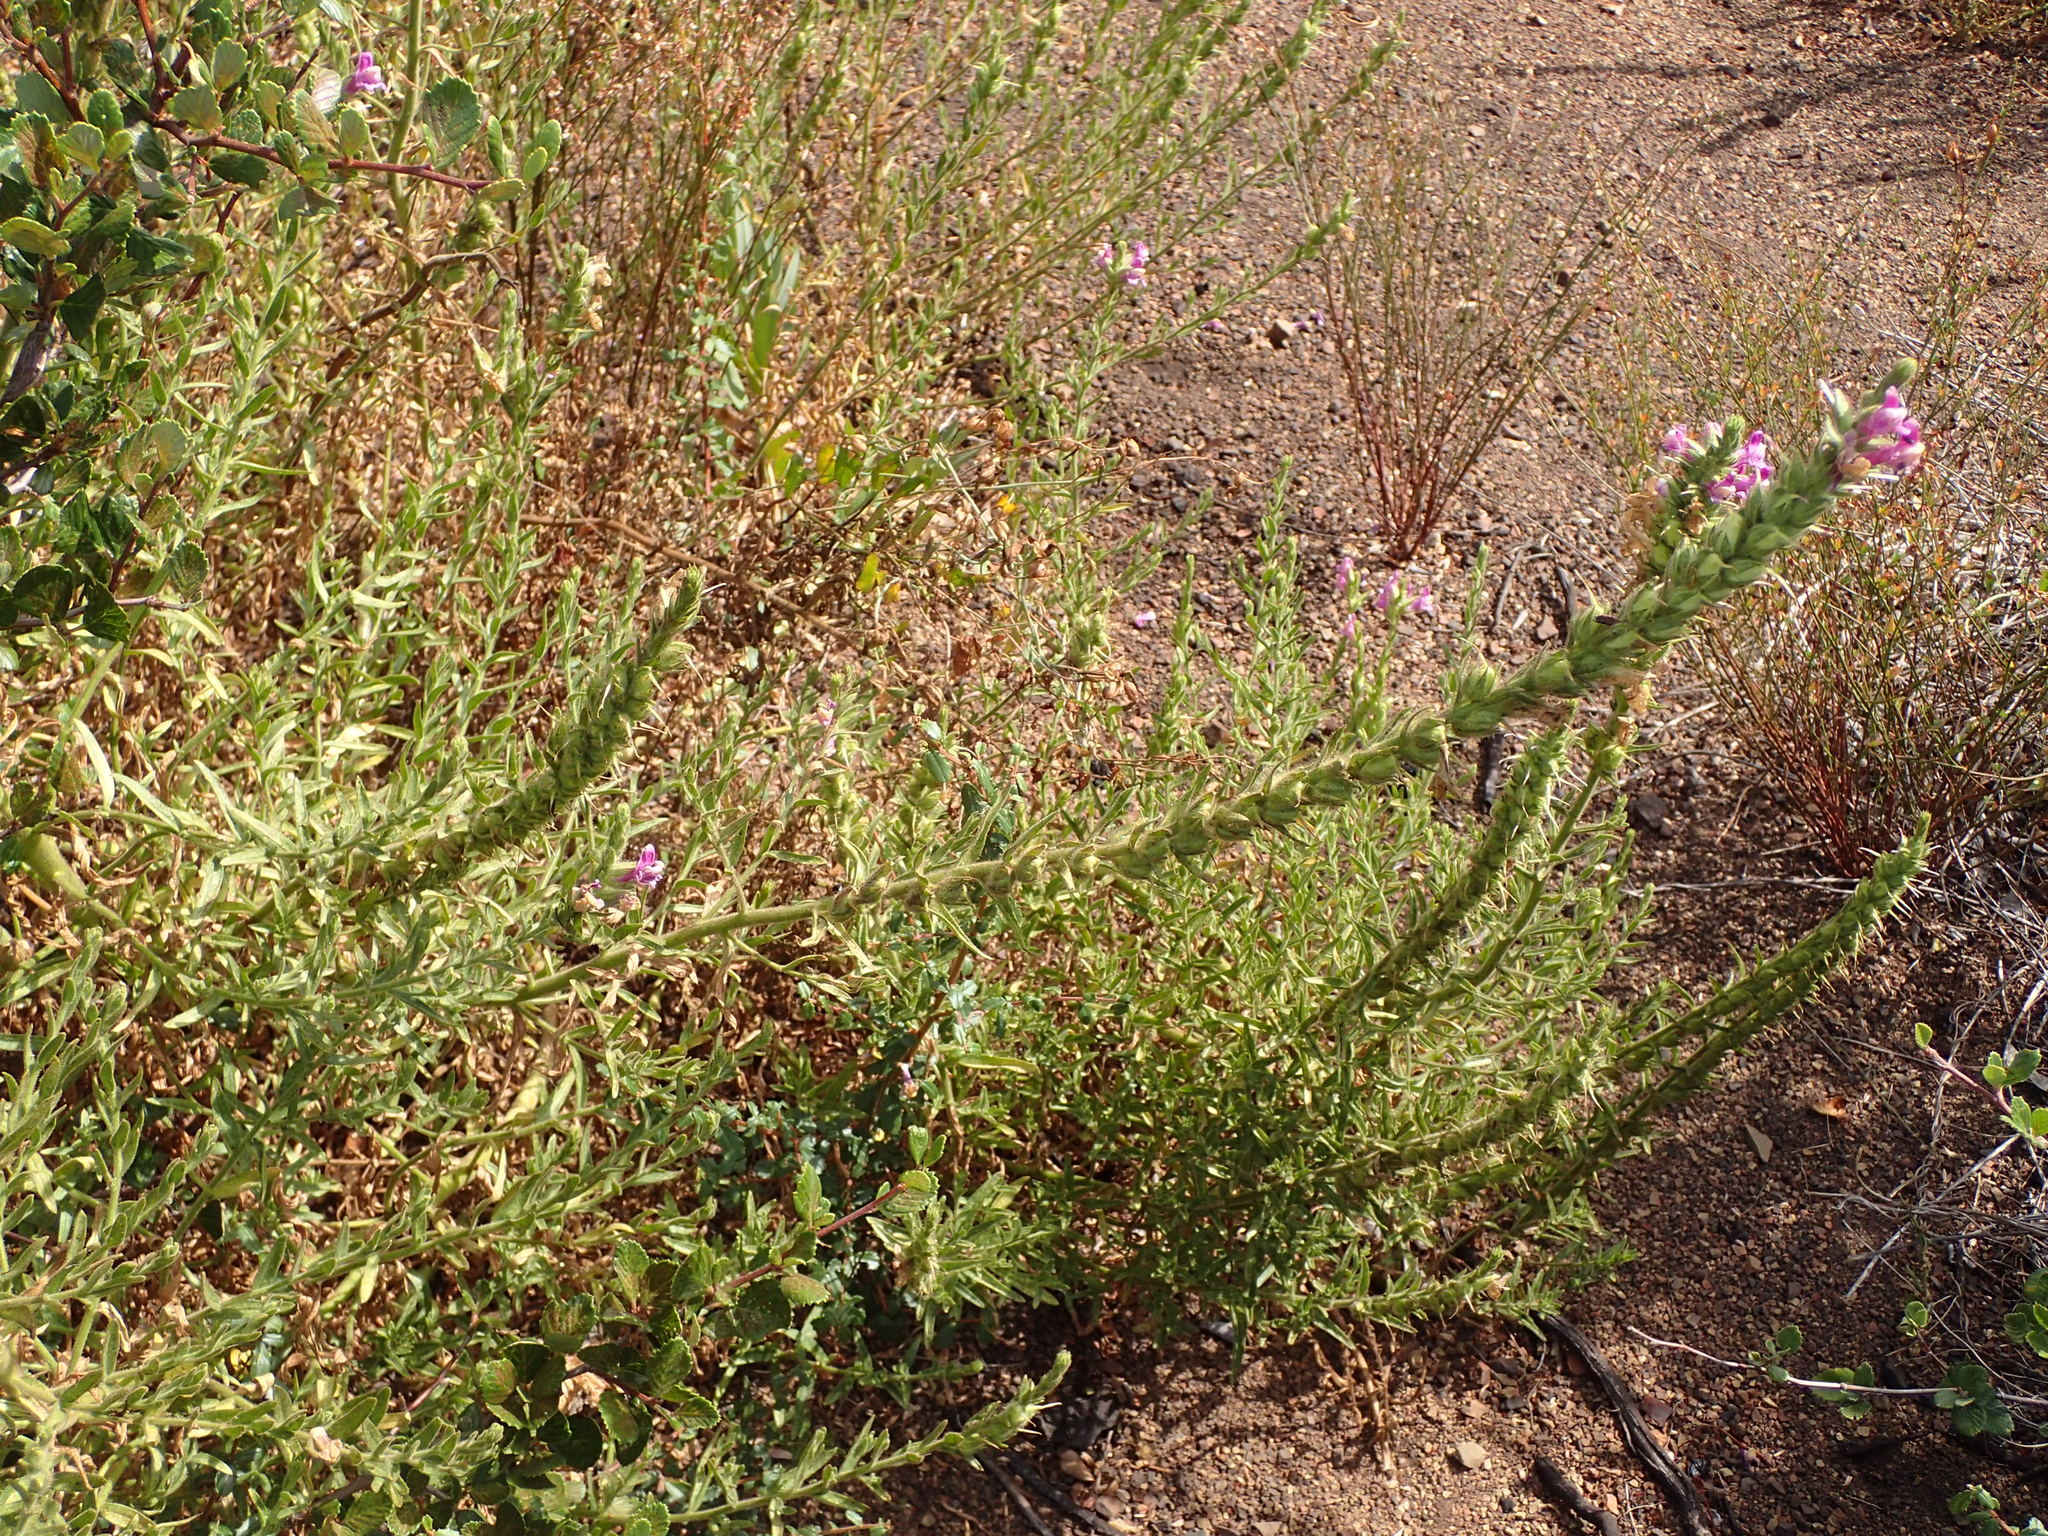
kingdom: Plantae
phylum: Tracheophyta
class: Magnoliopsida
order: Lamiales
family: Plantaginaceae
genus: Sairocarpus
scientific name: Sairocarpus multiflorus
